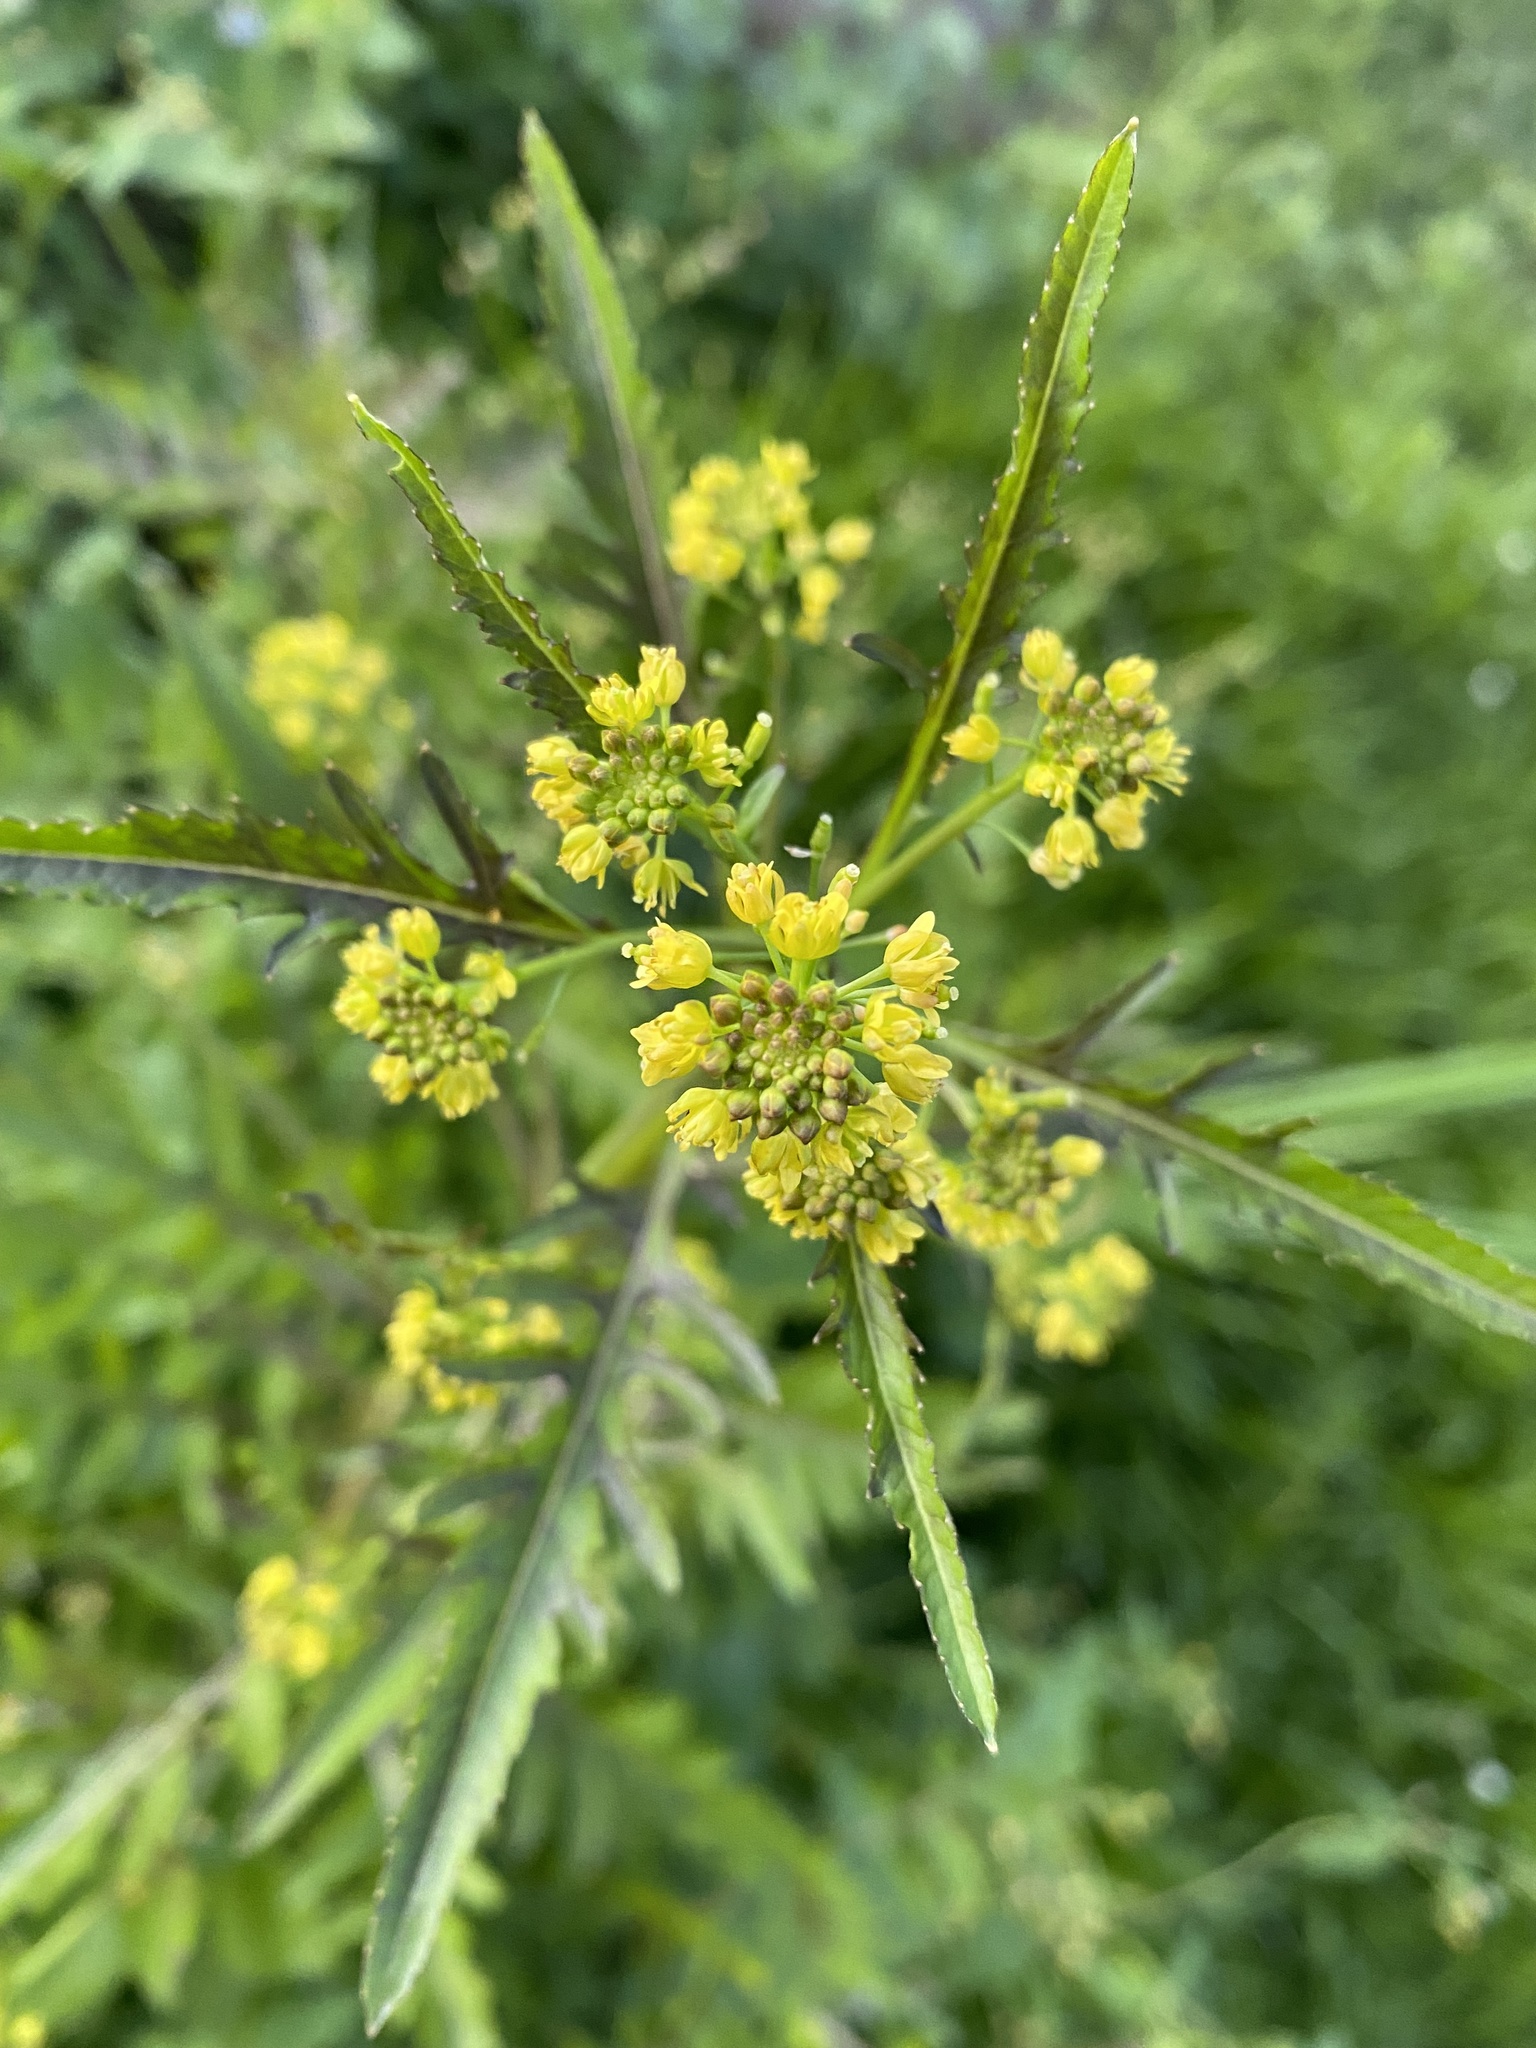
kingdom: Plantae
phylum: Tracheophyta
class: Magnoliopsida
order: Brassicales
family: Brassicaceae
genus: Rorippa
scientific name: Rorippa palustris
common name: Marsh yellow-cress
